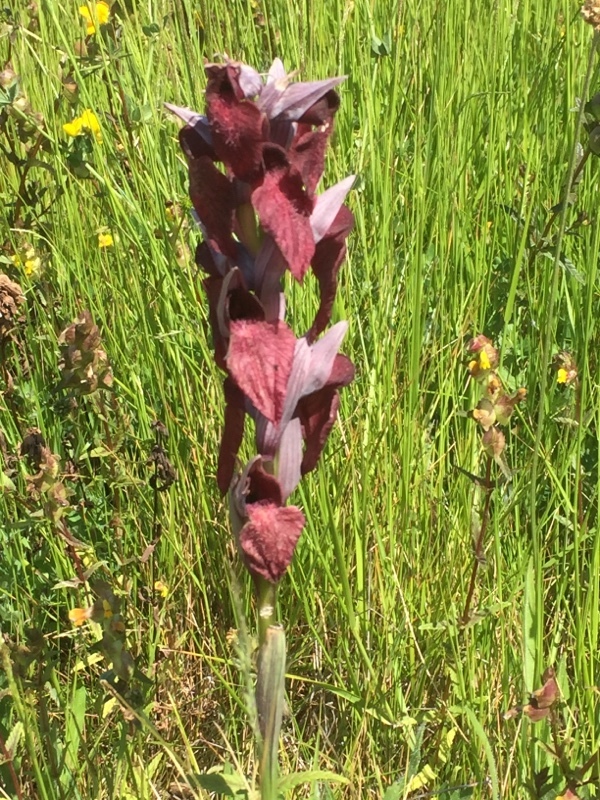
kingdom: Plantae
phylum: Tracheophyta
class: Liliopsida
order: Asparagales
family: Orchidaceae
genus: Serapias
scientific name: Serapias cordigera
